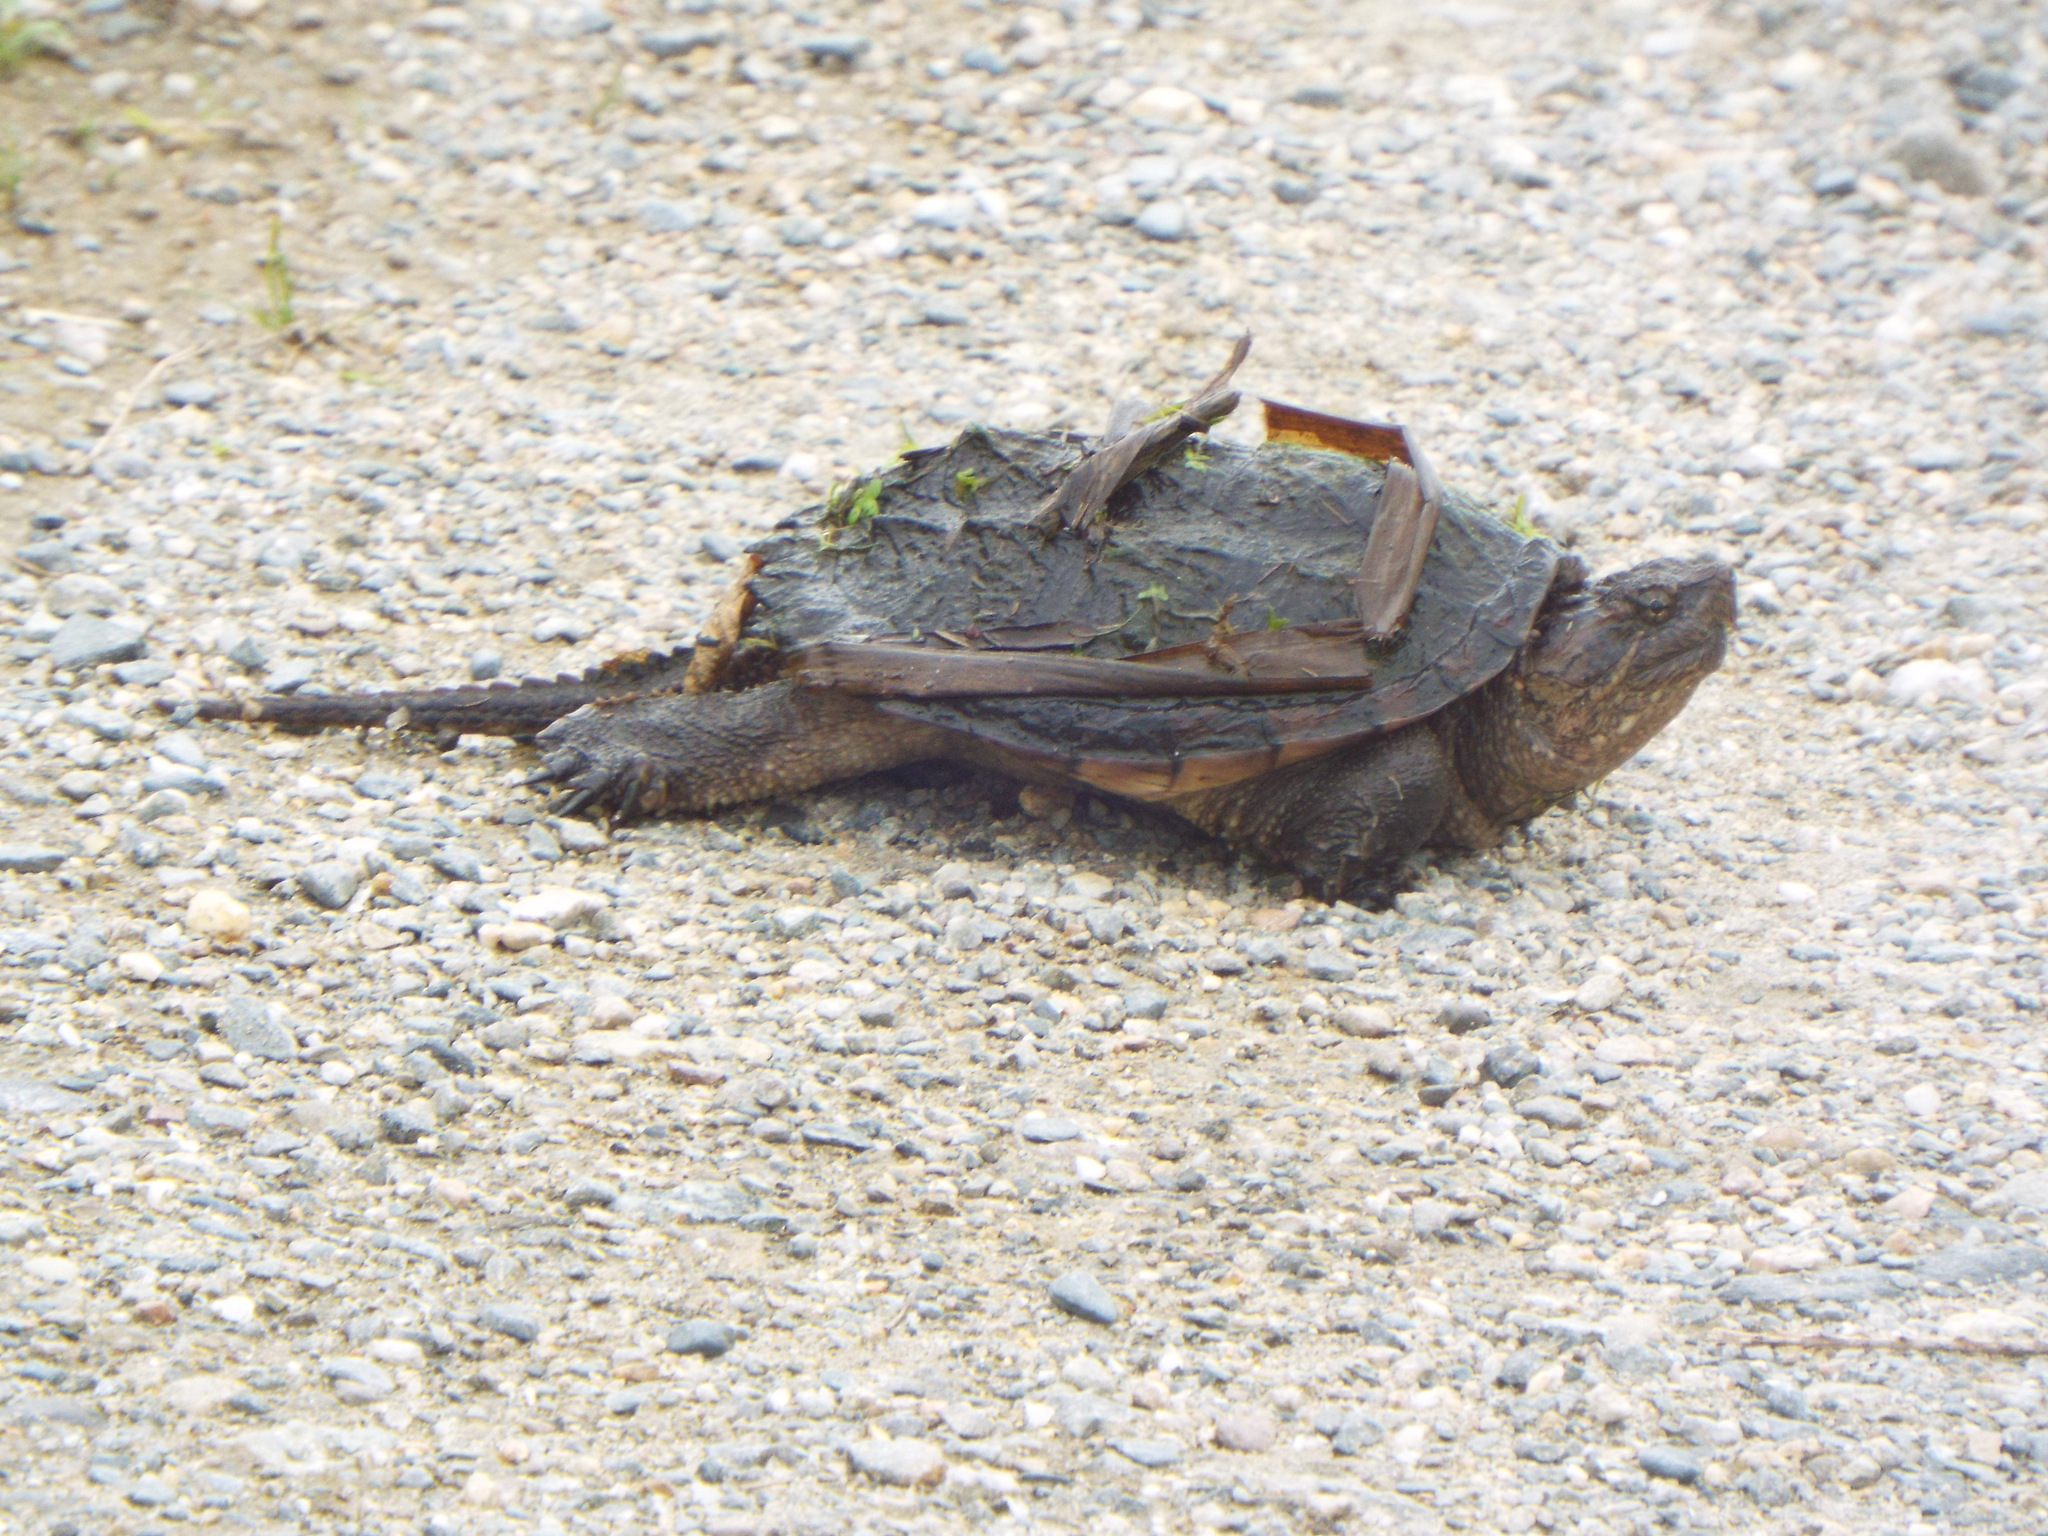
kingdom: Animalia
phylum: Chordata
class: Testudines
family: Chelydridae
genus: Chelydra
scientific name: Chelydra serpentina
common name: Common snapping turtle
